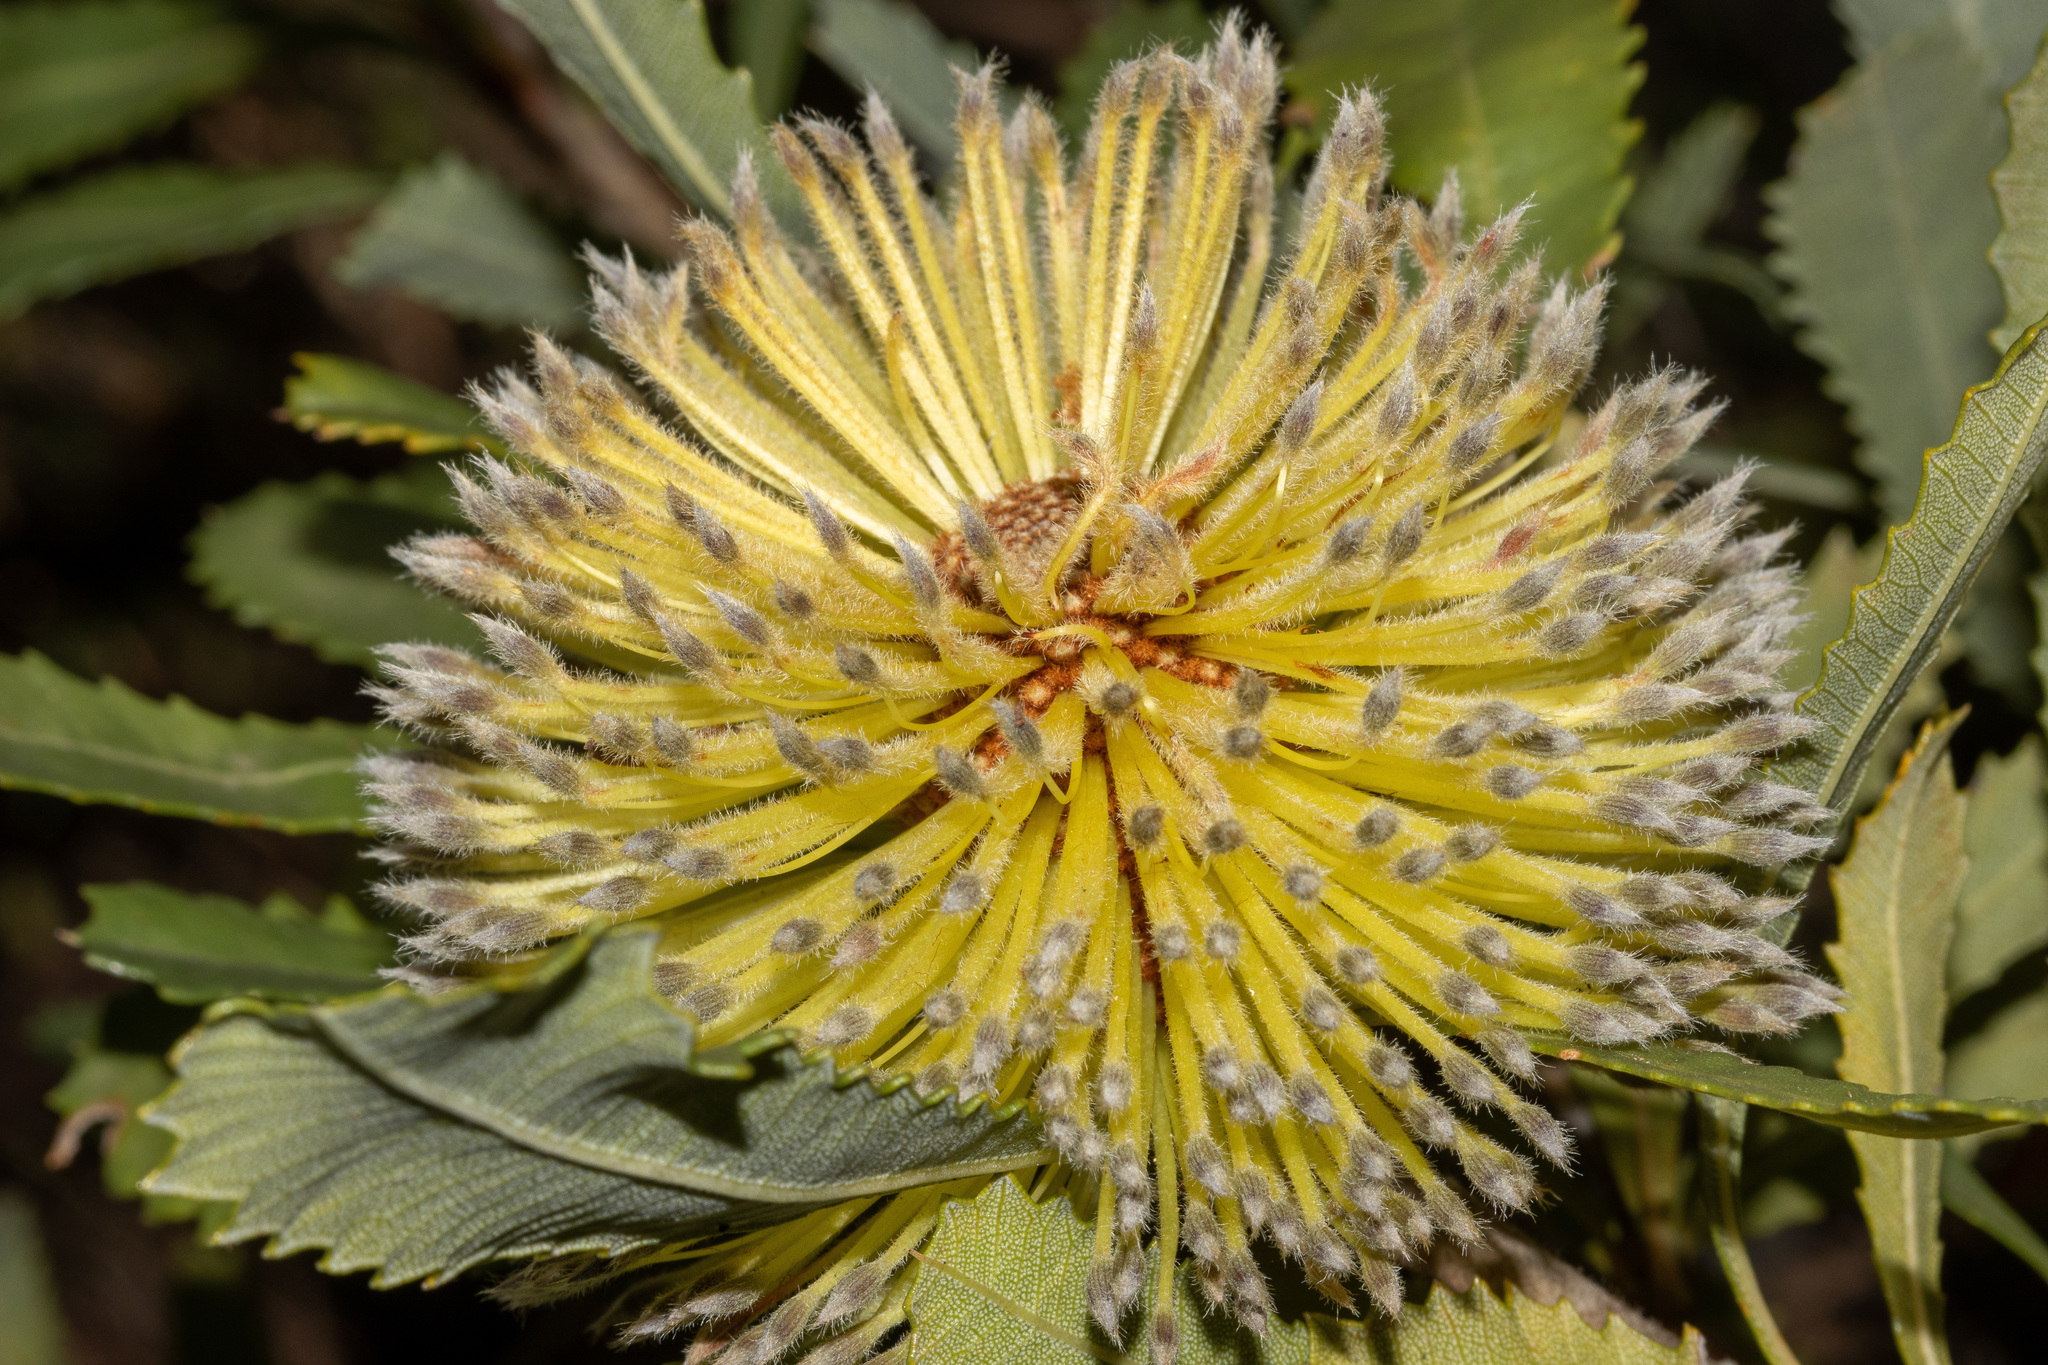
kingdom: Plantae
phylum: Tracheophyta
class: Magnoliopsida
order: Proteales
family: Proteaceae
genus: Banksia
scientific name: Banksia ornata
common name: Desert banksia
